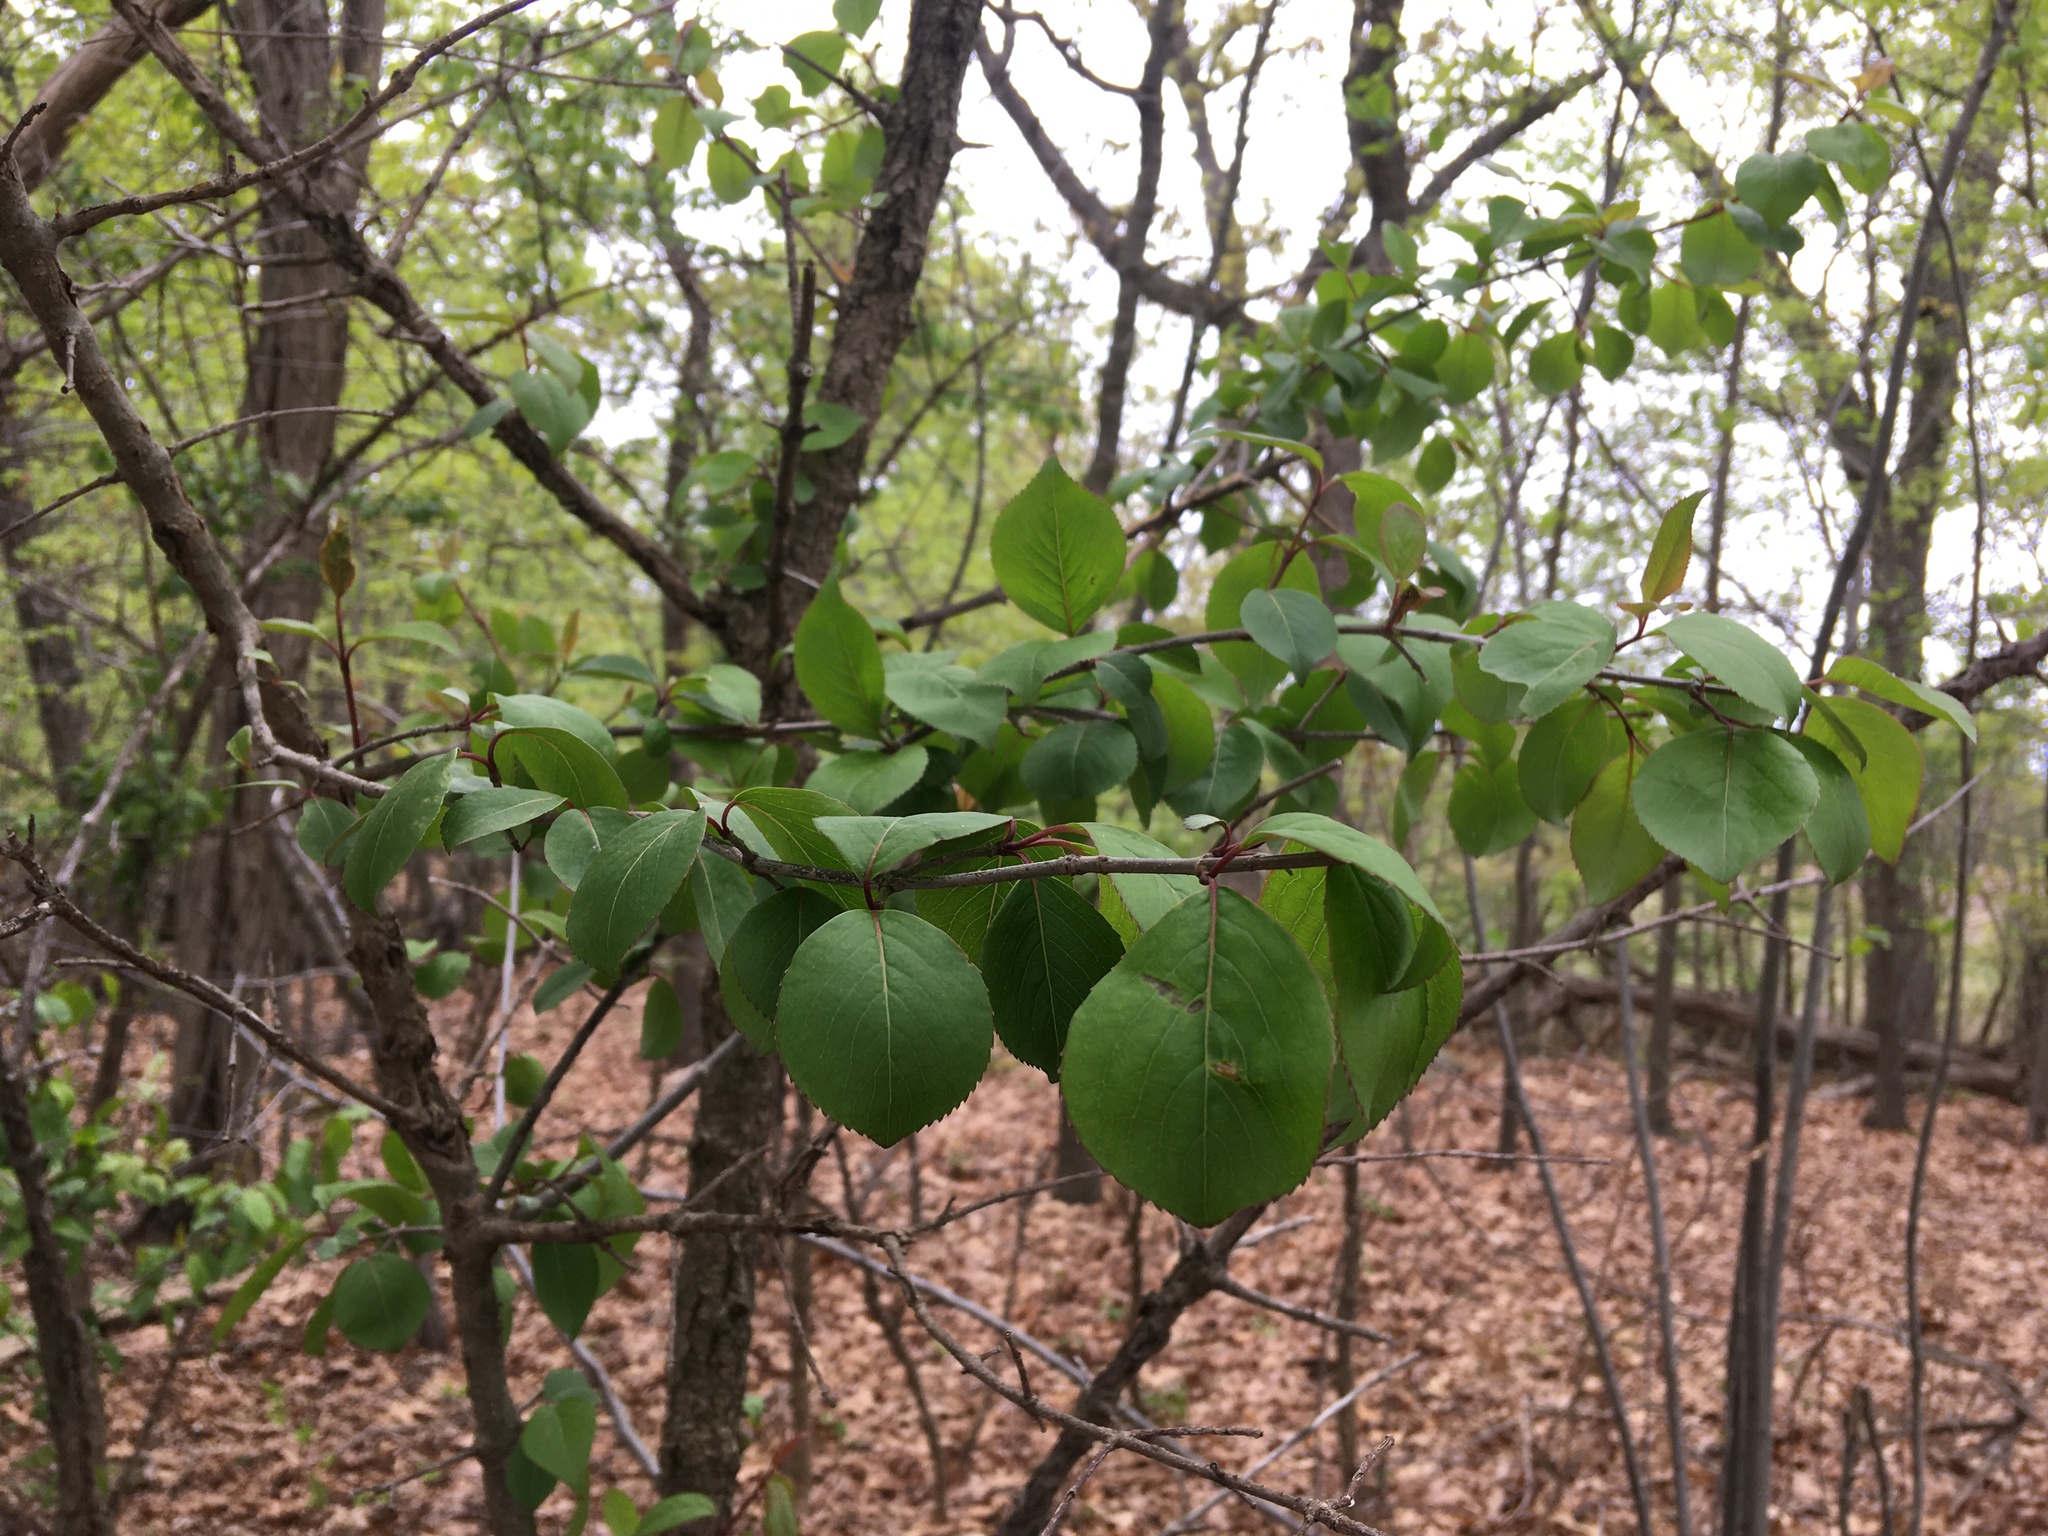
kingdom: Plantae
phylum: Tracheophyta
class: Magnoliopsida
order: Dipsacales
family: Viburnaceae
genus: Viburnum
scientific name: Viburnum prunifolium
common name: Black haw
